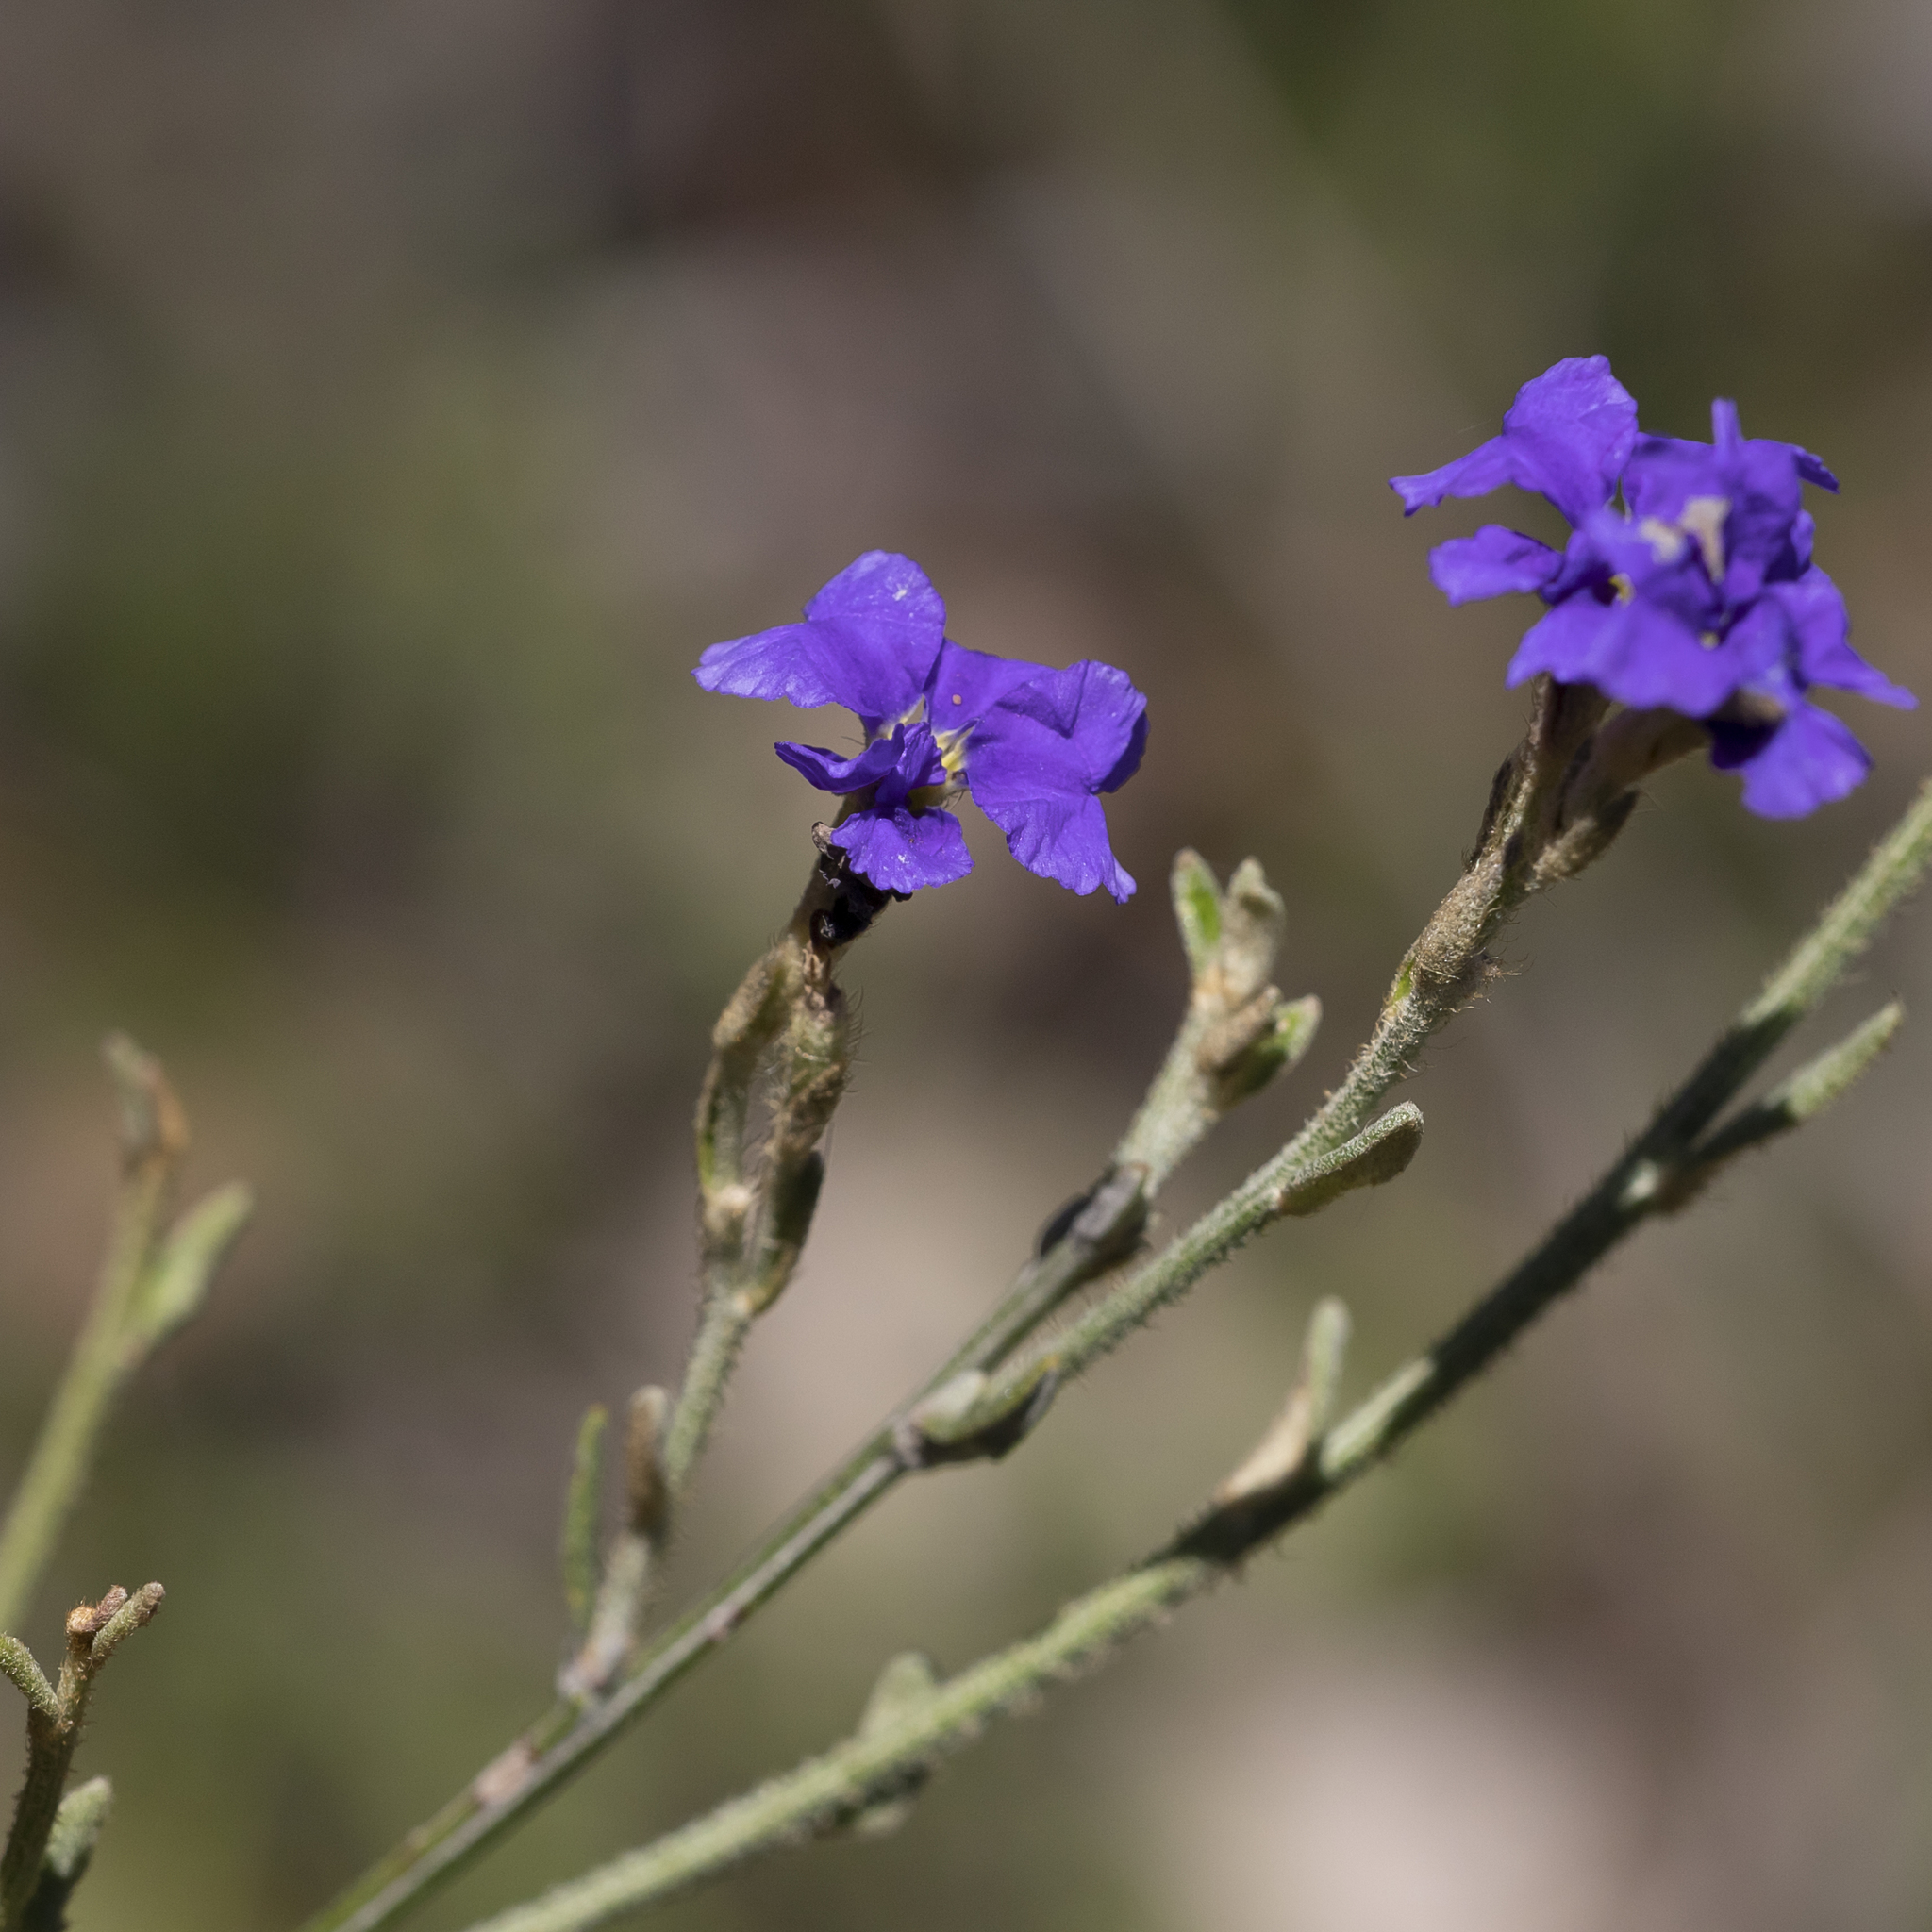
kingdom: Plantae
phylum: Tracheophyta
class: Magnoliopsida
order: Asterales
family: Goodeniaceae
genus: Dampiera
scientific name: Dampiera dysantha
